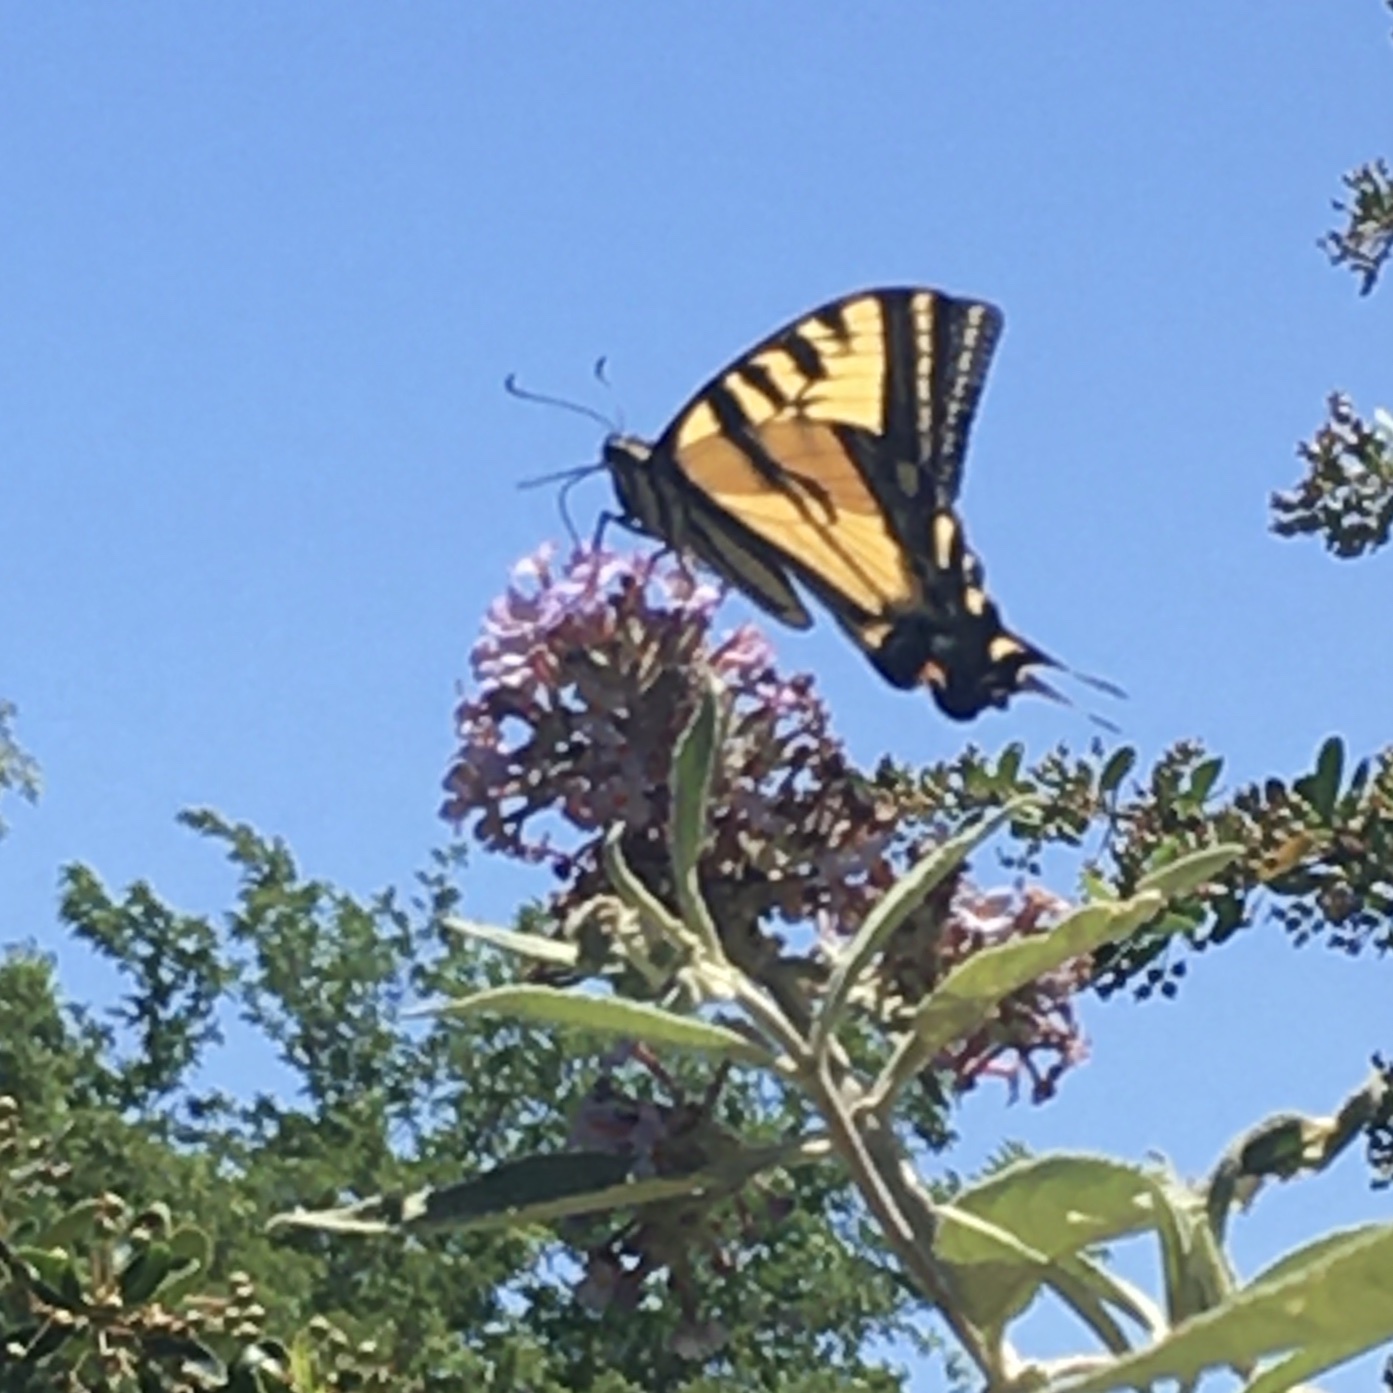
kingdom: Animalia
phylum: Arthropoda
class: Insecta
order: Lepidoptera
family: Papilionidae
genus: Papilio
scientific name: Papilio rutulus
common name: Western tiger swallowtail
